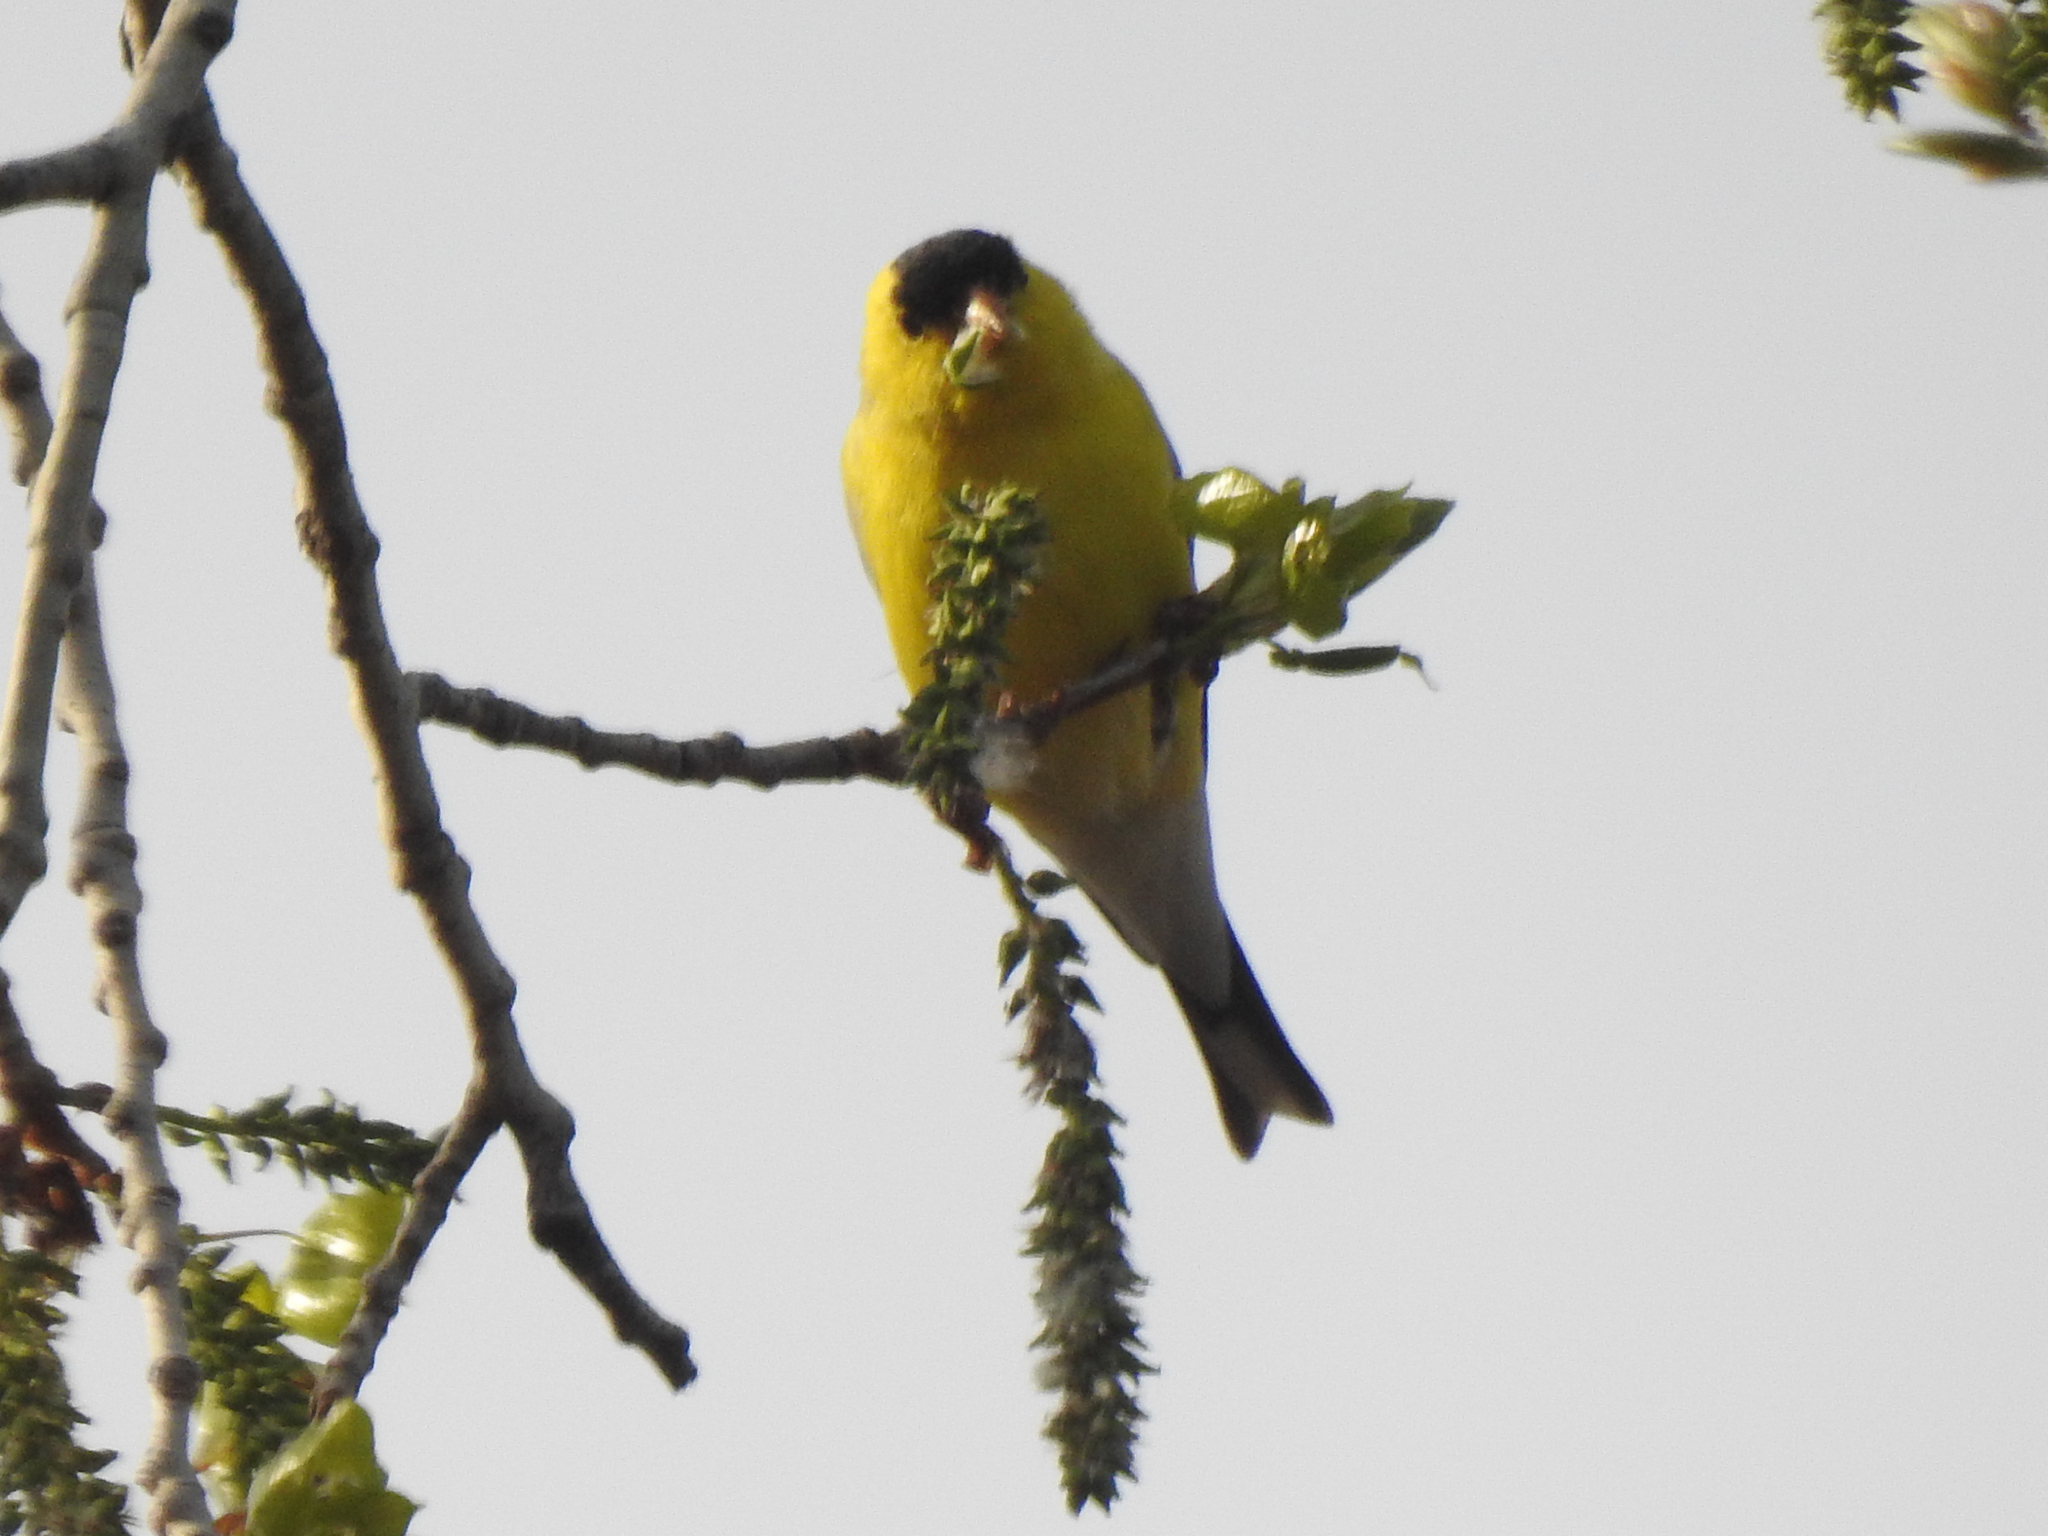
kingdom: Animalia
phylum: Chordata
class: Aves
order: Passeriformes
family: Fringillidae
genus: Spinus
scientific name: Spinus tristis
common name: American goldfinch
